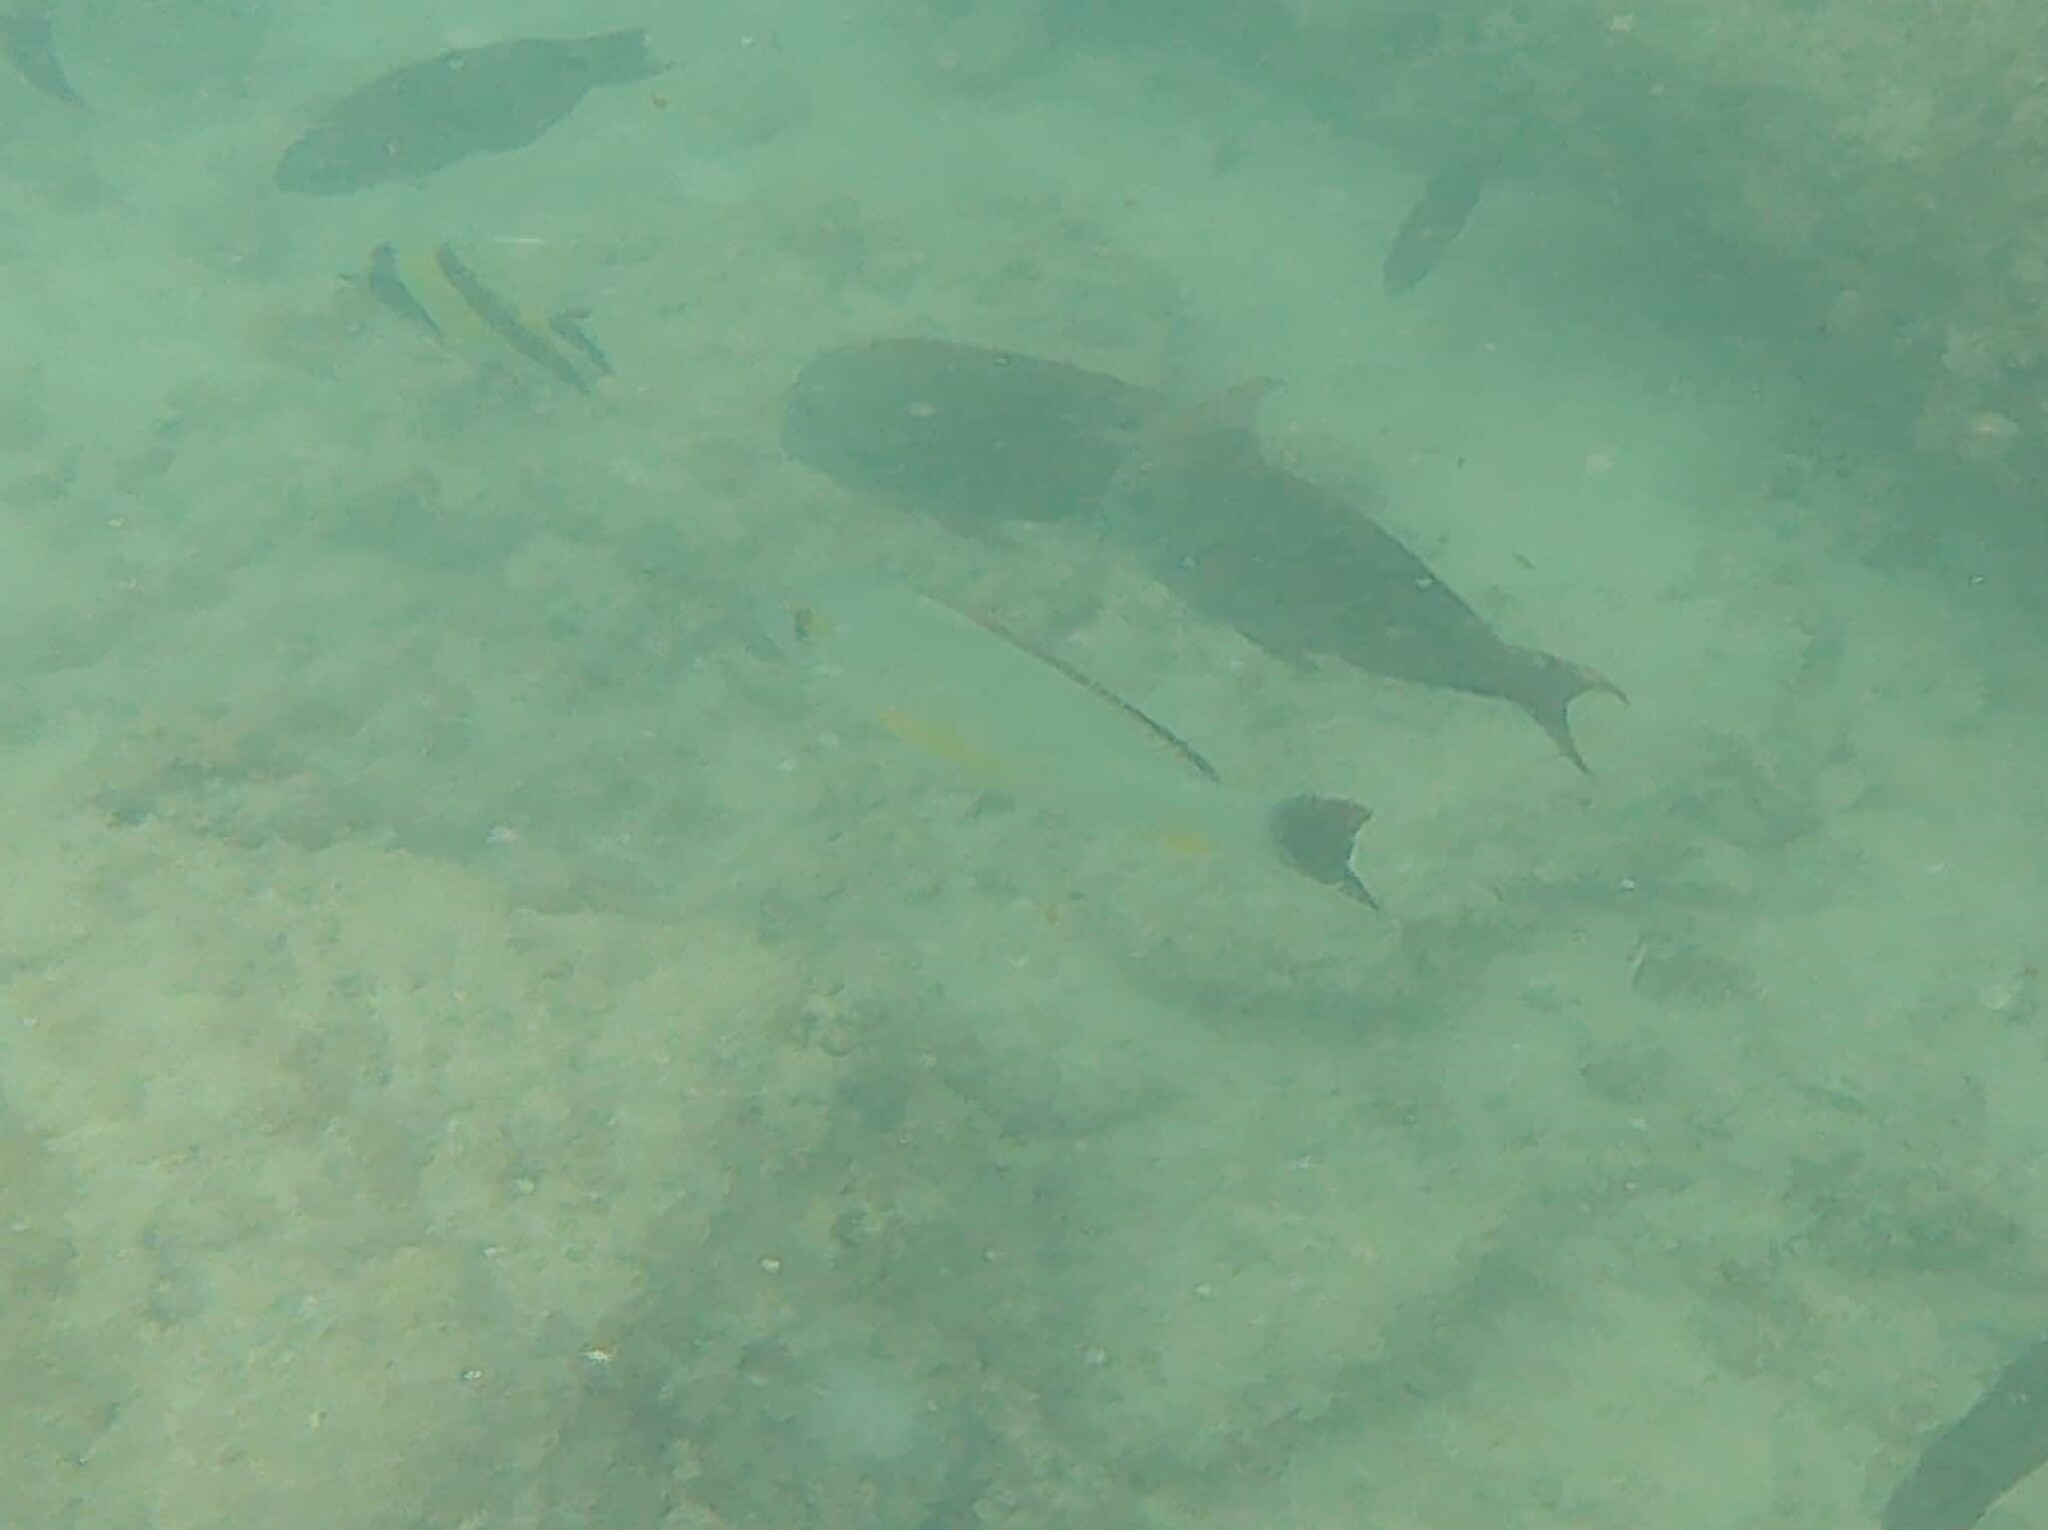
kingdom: Animalia
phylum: Chordata
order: Perciformes
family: Lutjanidae
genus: Lutjanus
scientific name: Lutjanus fulvus
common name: Blacktail snapper
